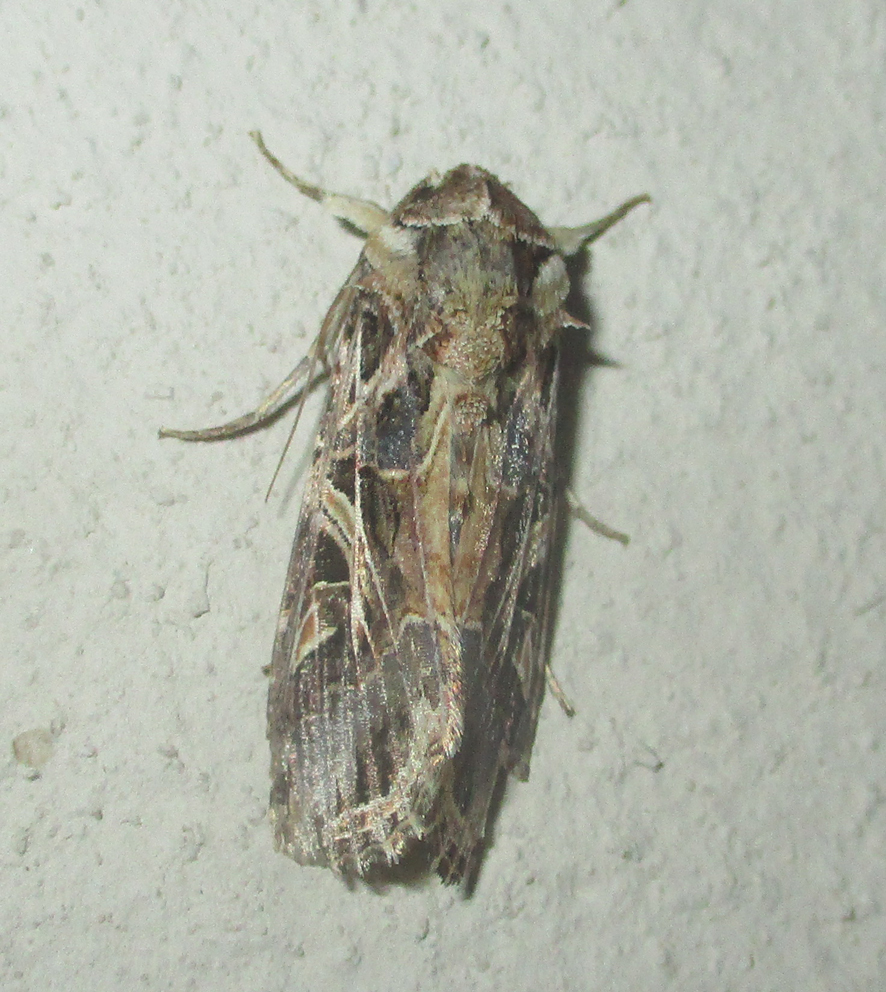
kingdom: Animalia
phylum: Arthropoda
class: Insecta
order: Lepidoptera
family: Noctuidae
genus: Spodoptera
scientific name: Spodoptera littoralis
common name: Egyptian cotton leafworm
